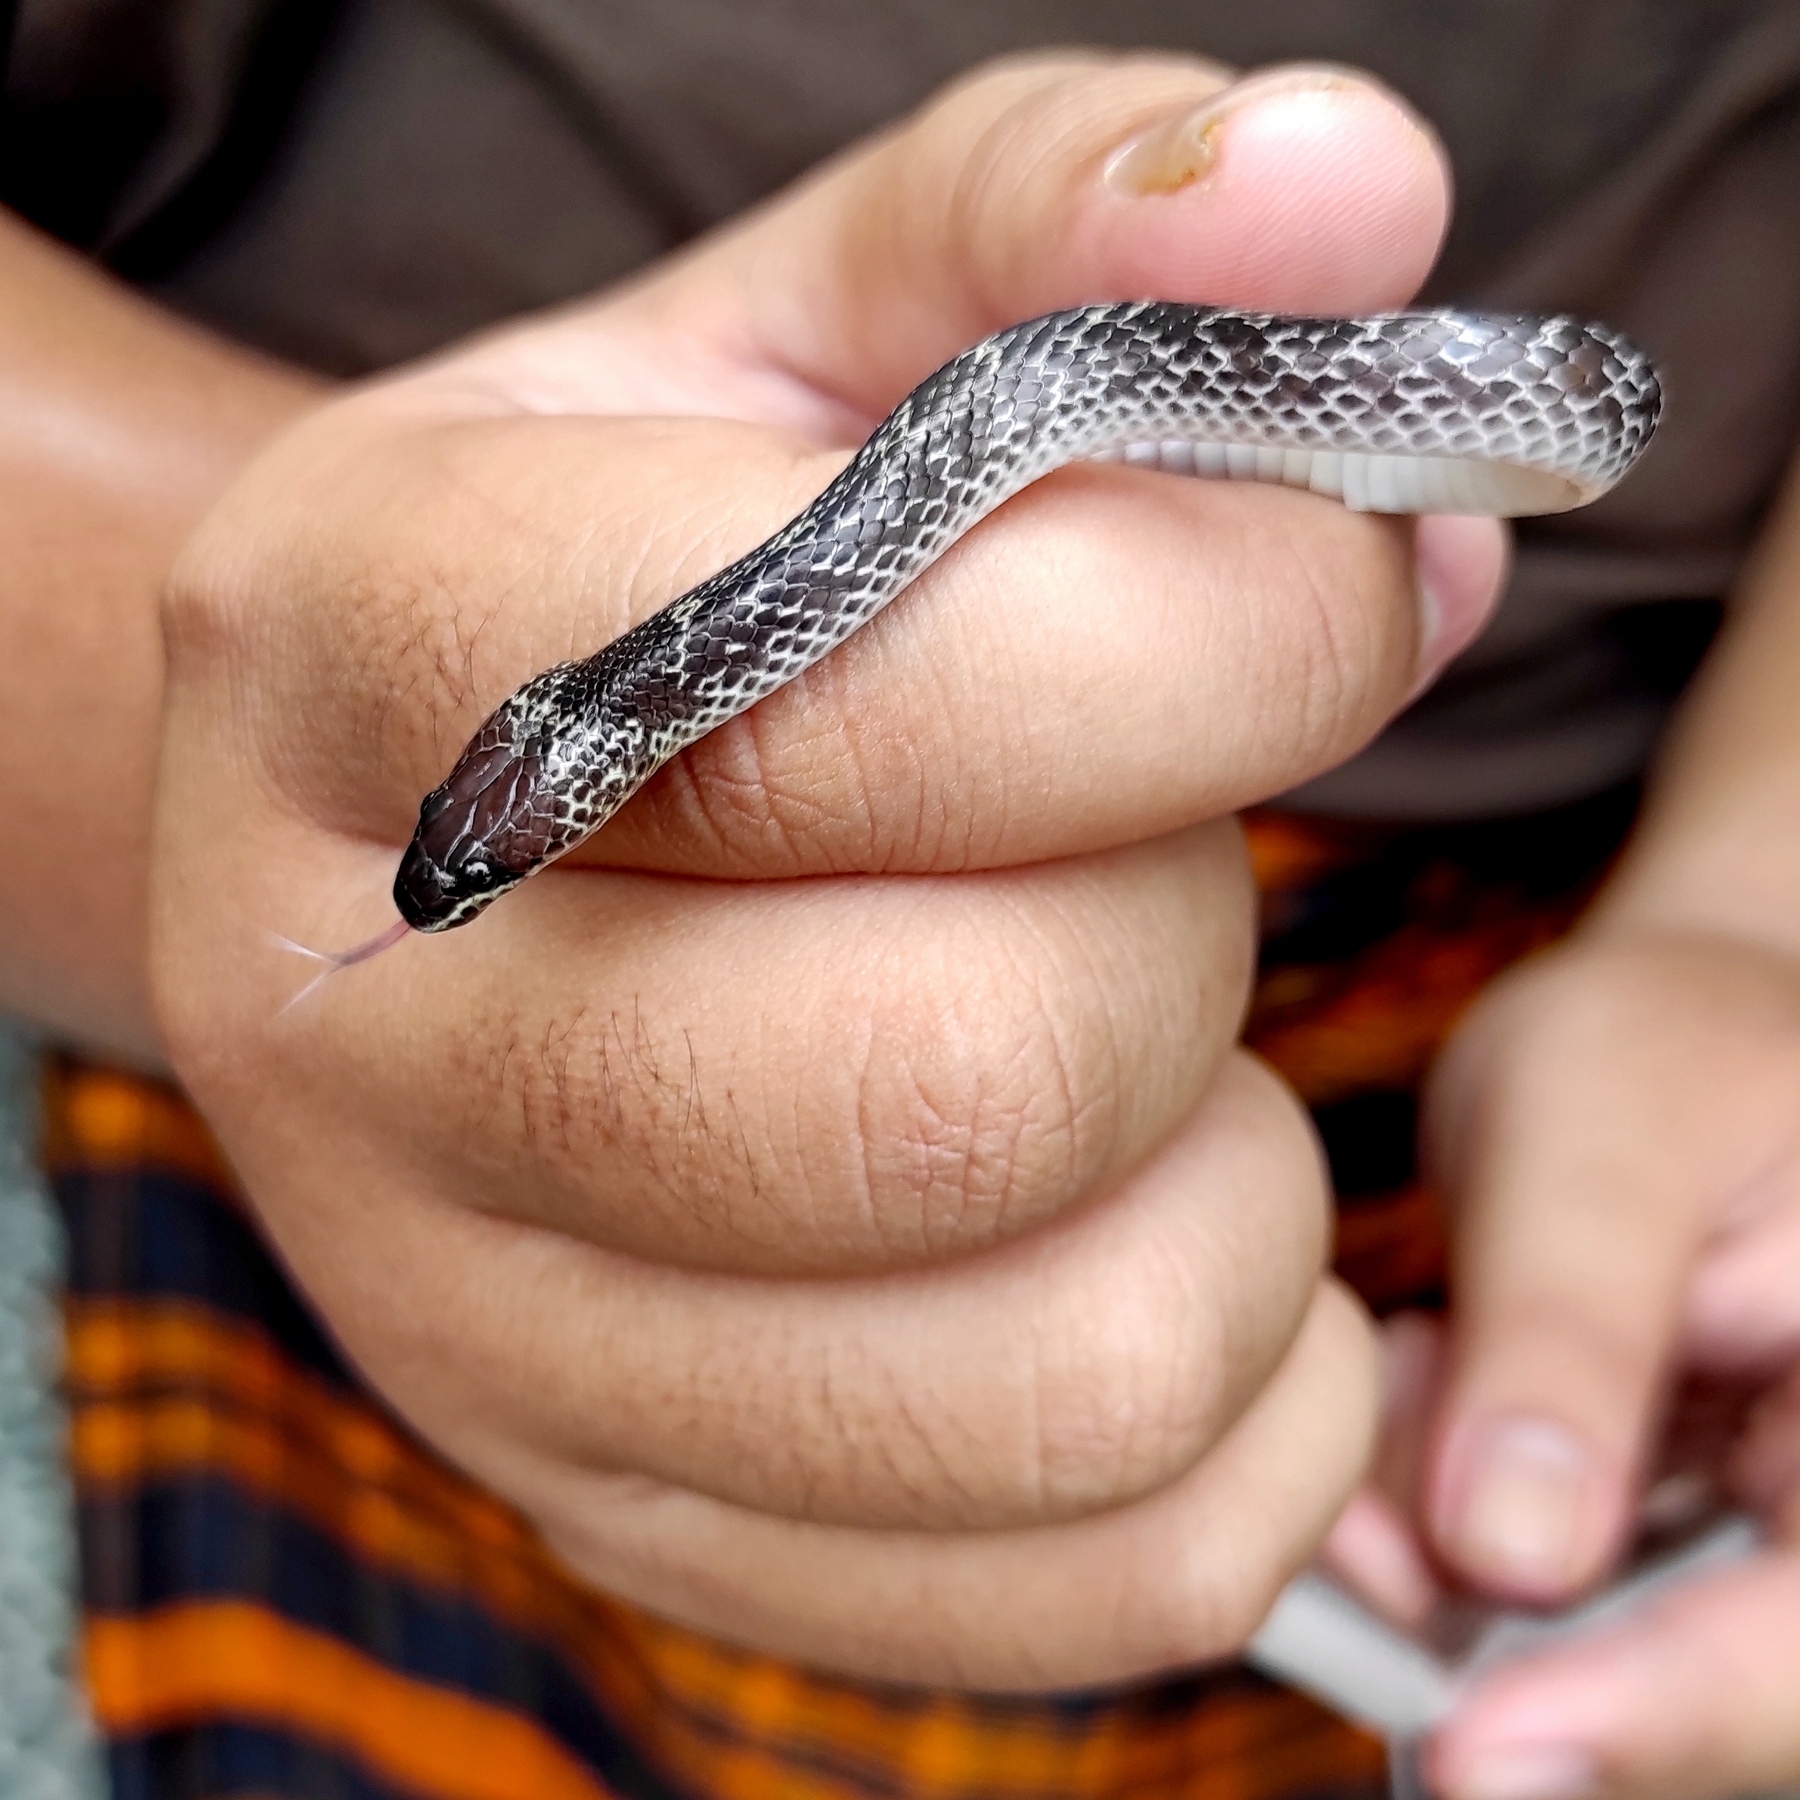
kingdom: Animalia
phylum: Chordata
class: Squamata
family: Colubridae
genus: Lycodon
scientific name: Lycodon capucinus
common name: Common wold snake/house snake
